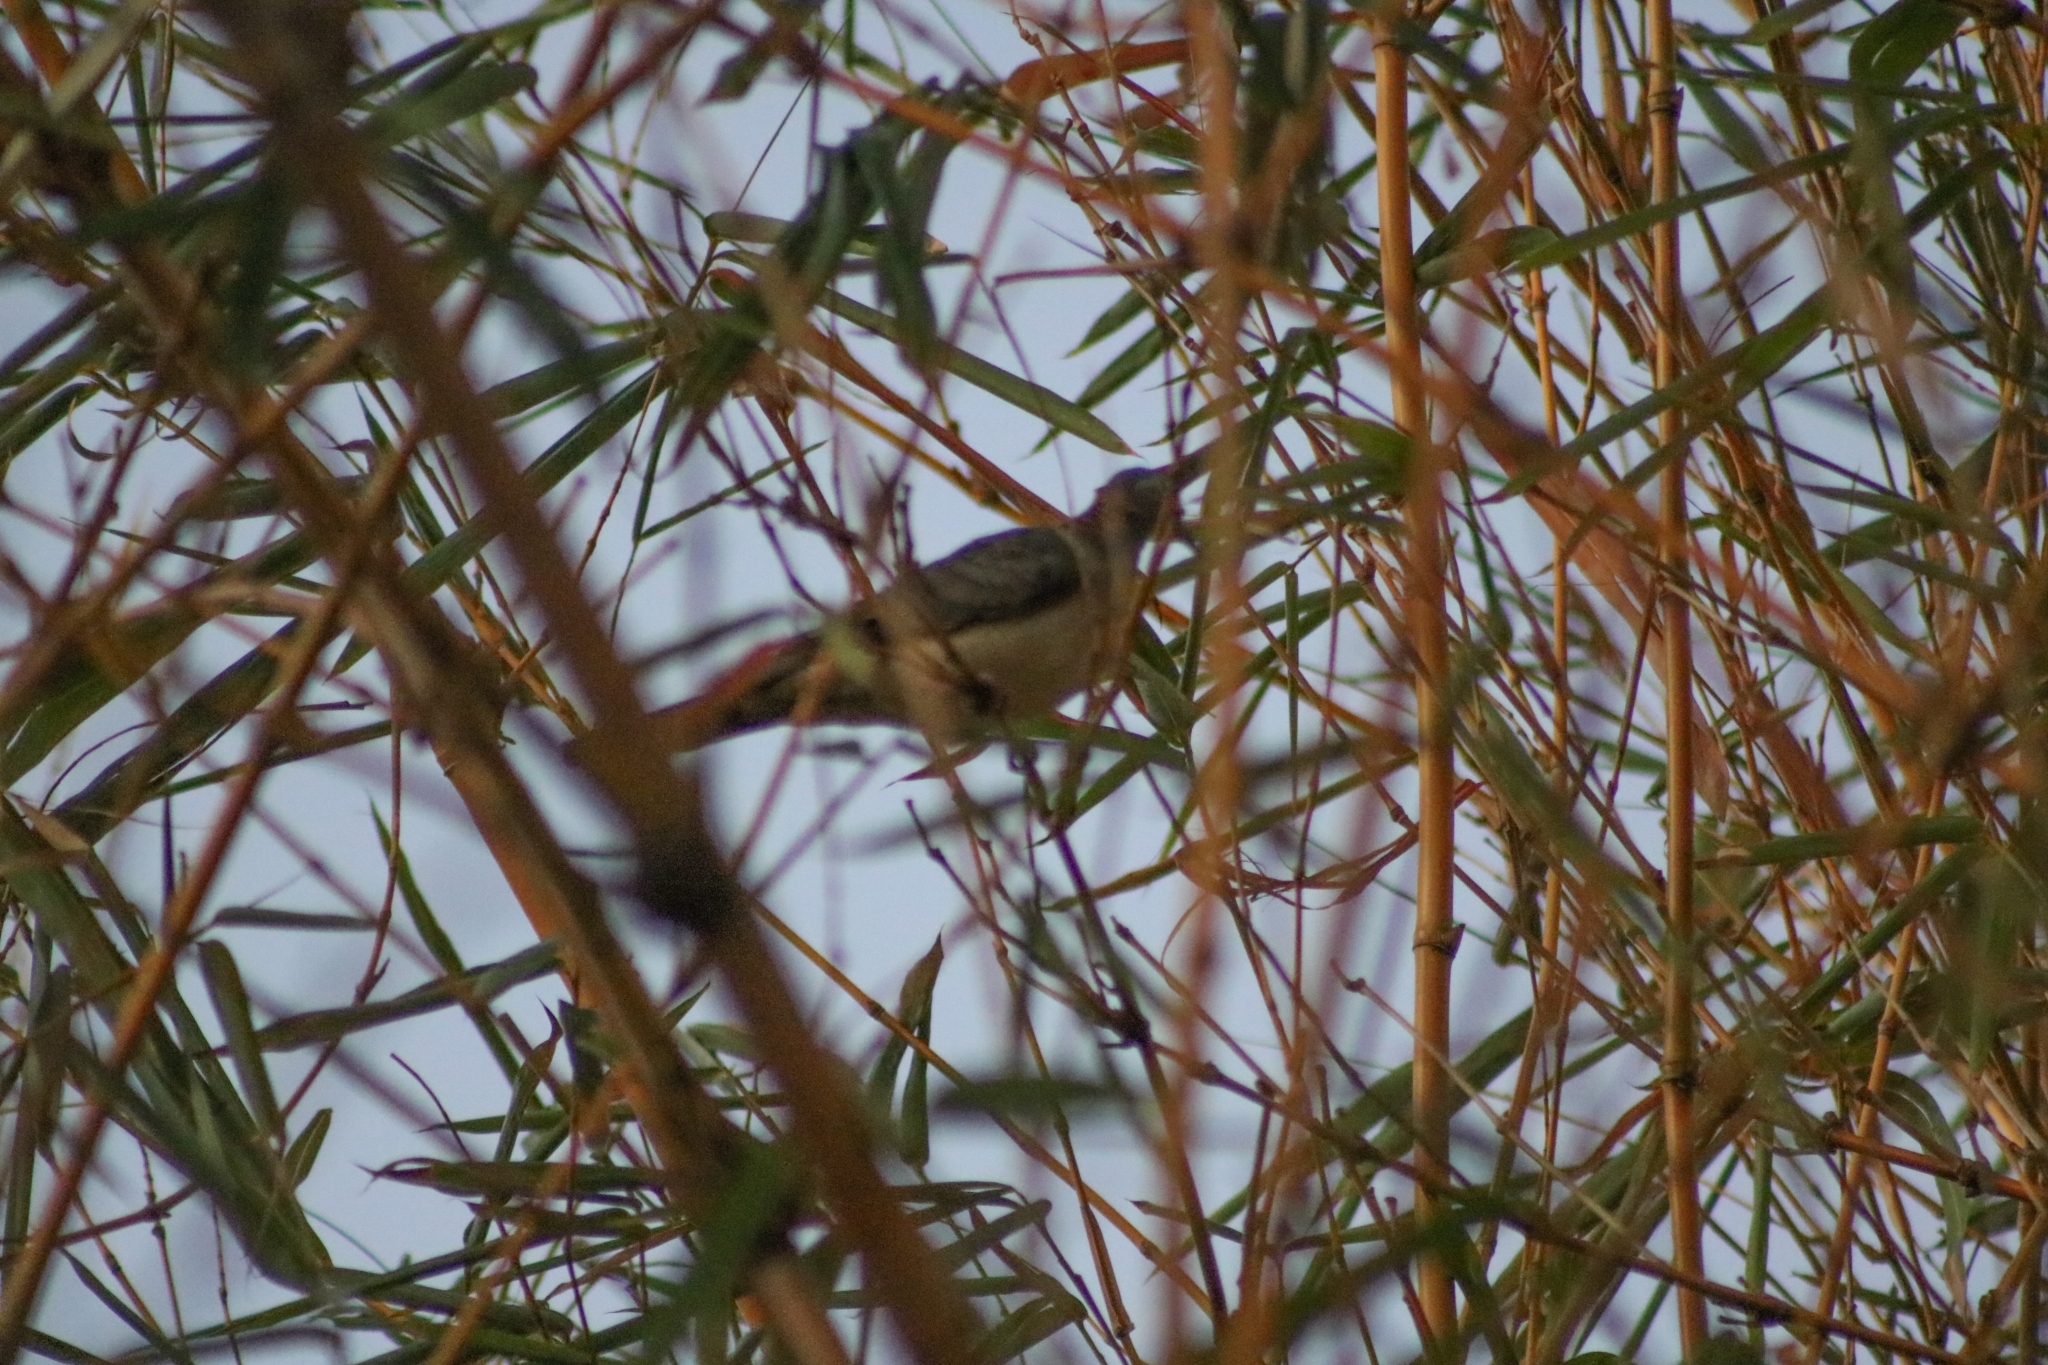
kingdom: Animalia
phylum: Chordata
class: Aves
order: Columbiformes
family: Columbidae
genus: Geopelia
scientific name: Geopelia humeralis
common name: Bar-shouldered dove
